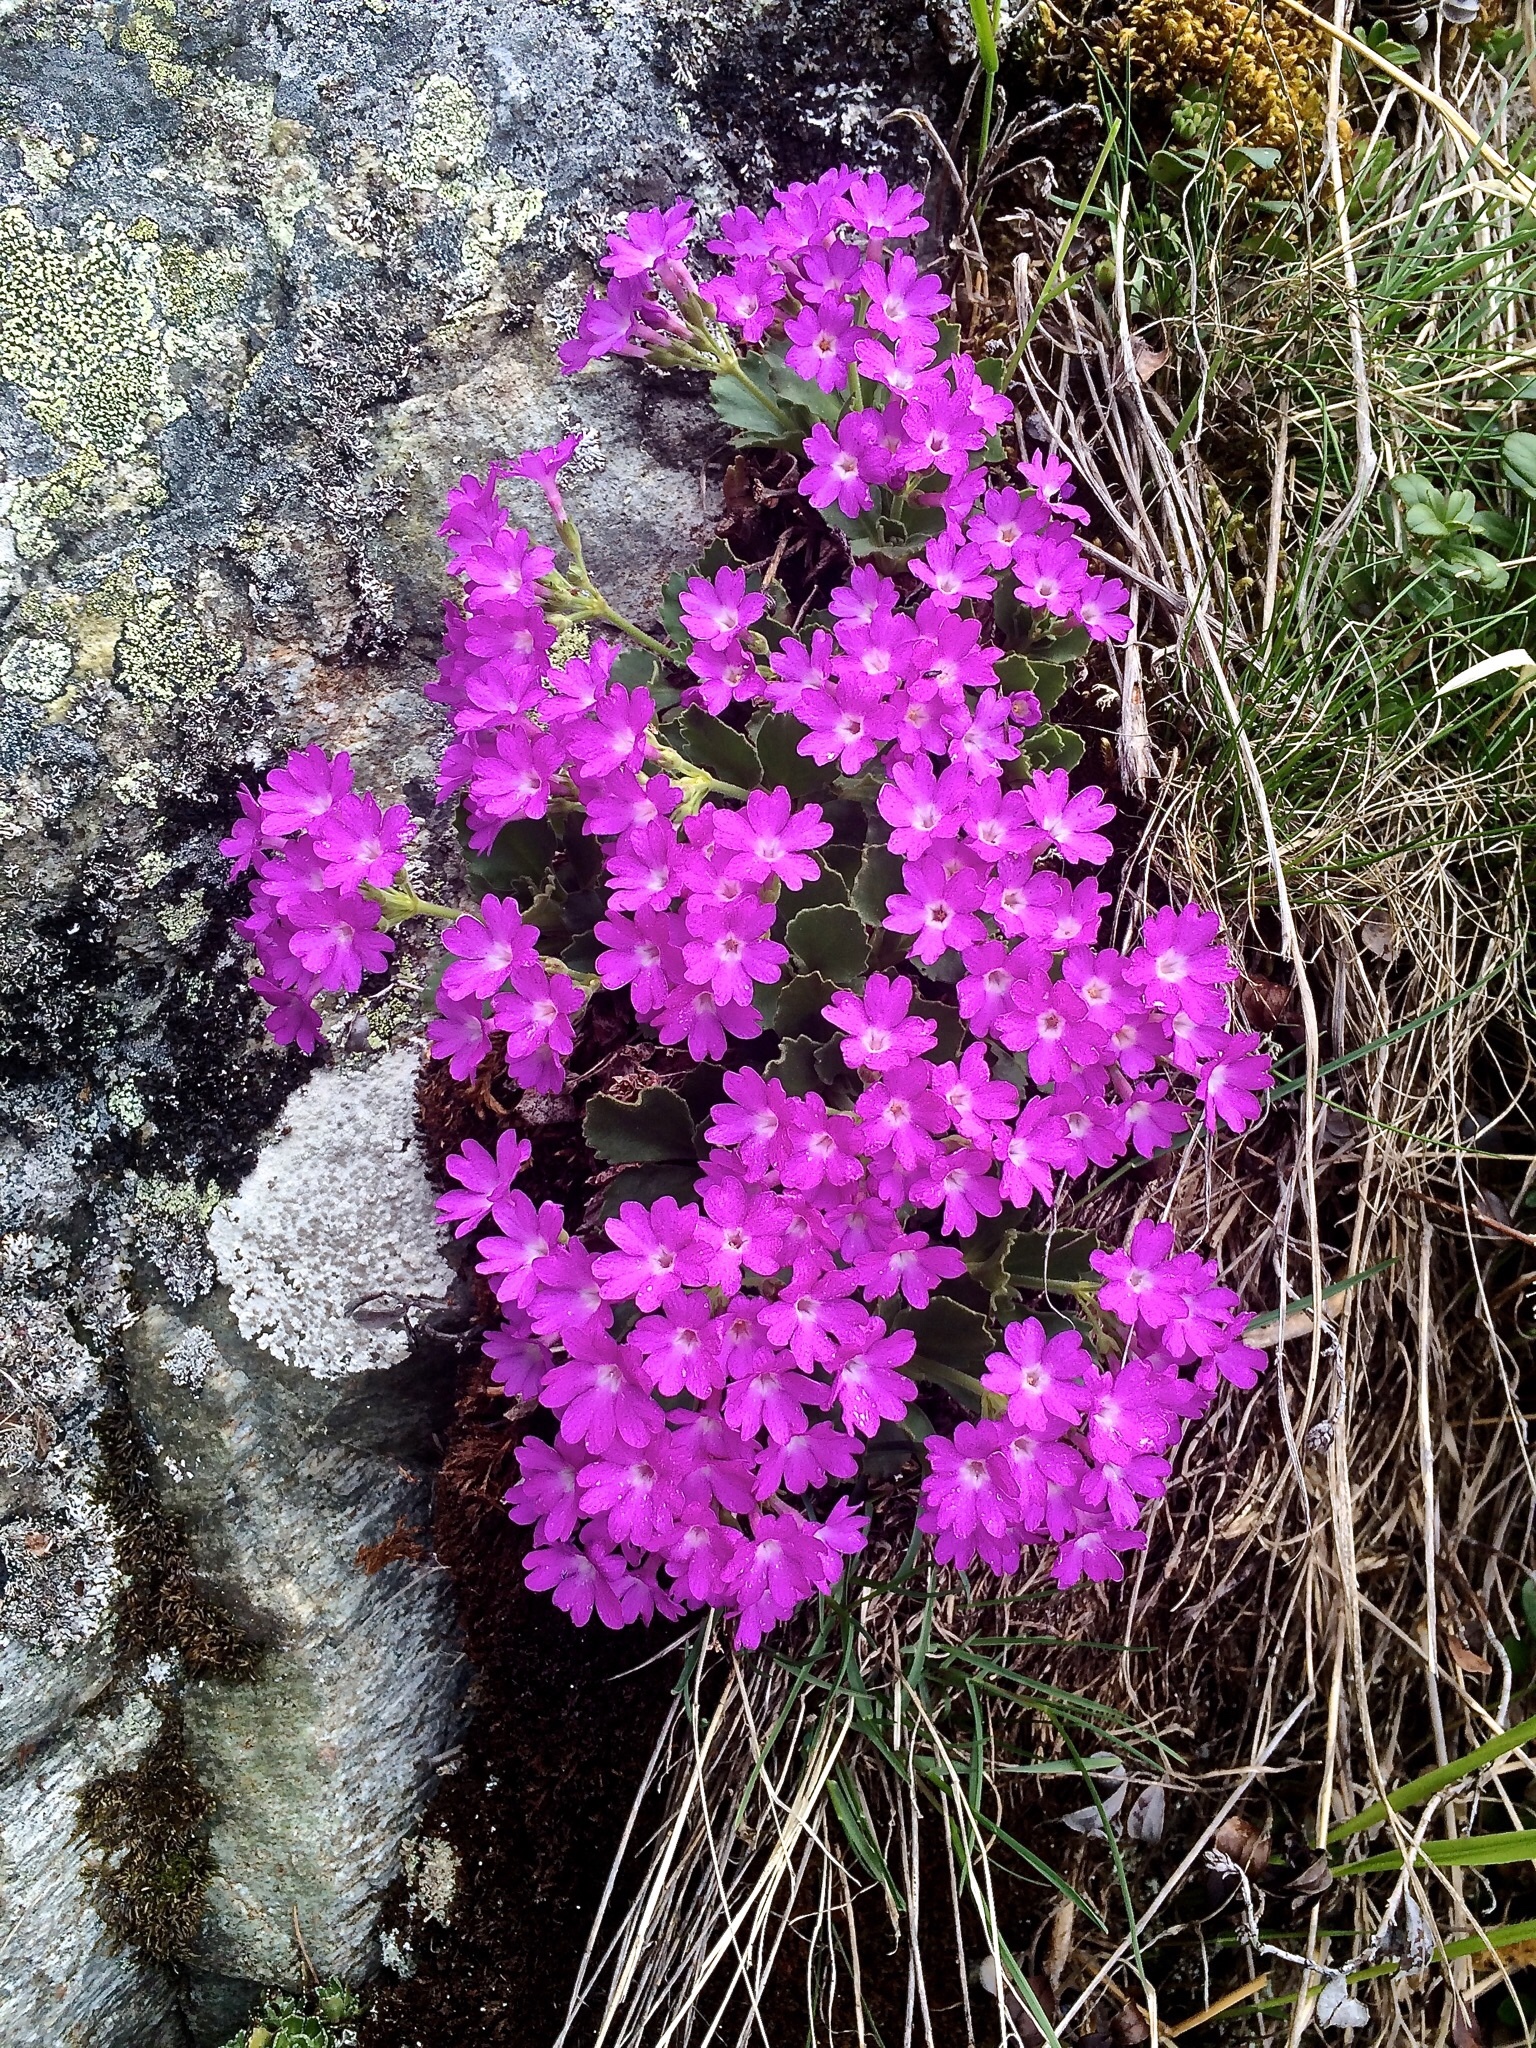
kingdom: Plantae
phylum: Tracheophyta
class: Magnoliopsida
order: Ericales
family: Primulaceae
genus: Primula
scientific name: Primula hirsuta
